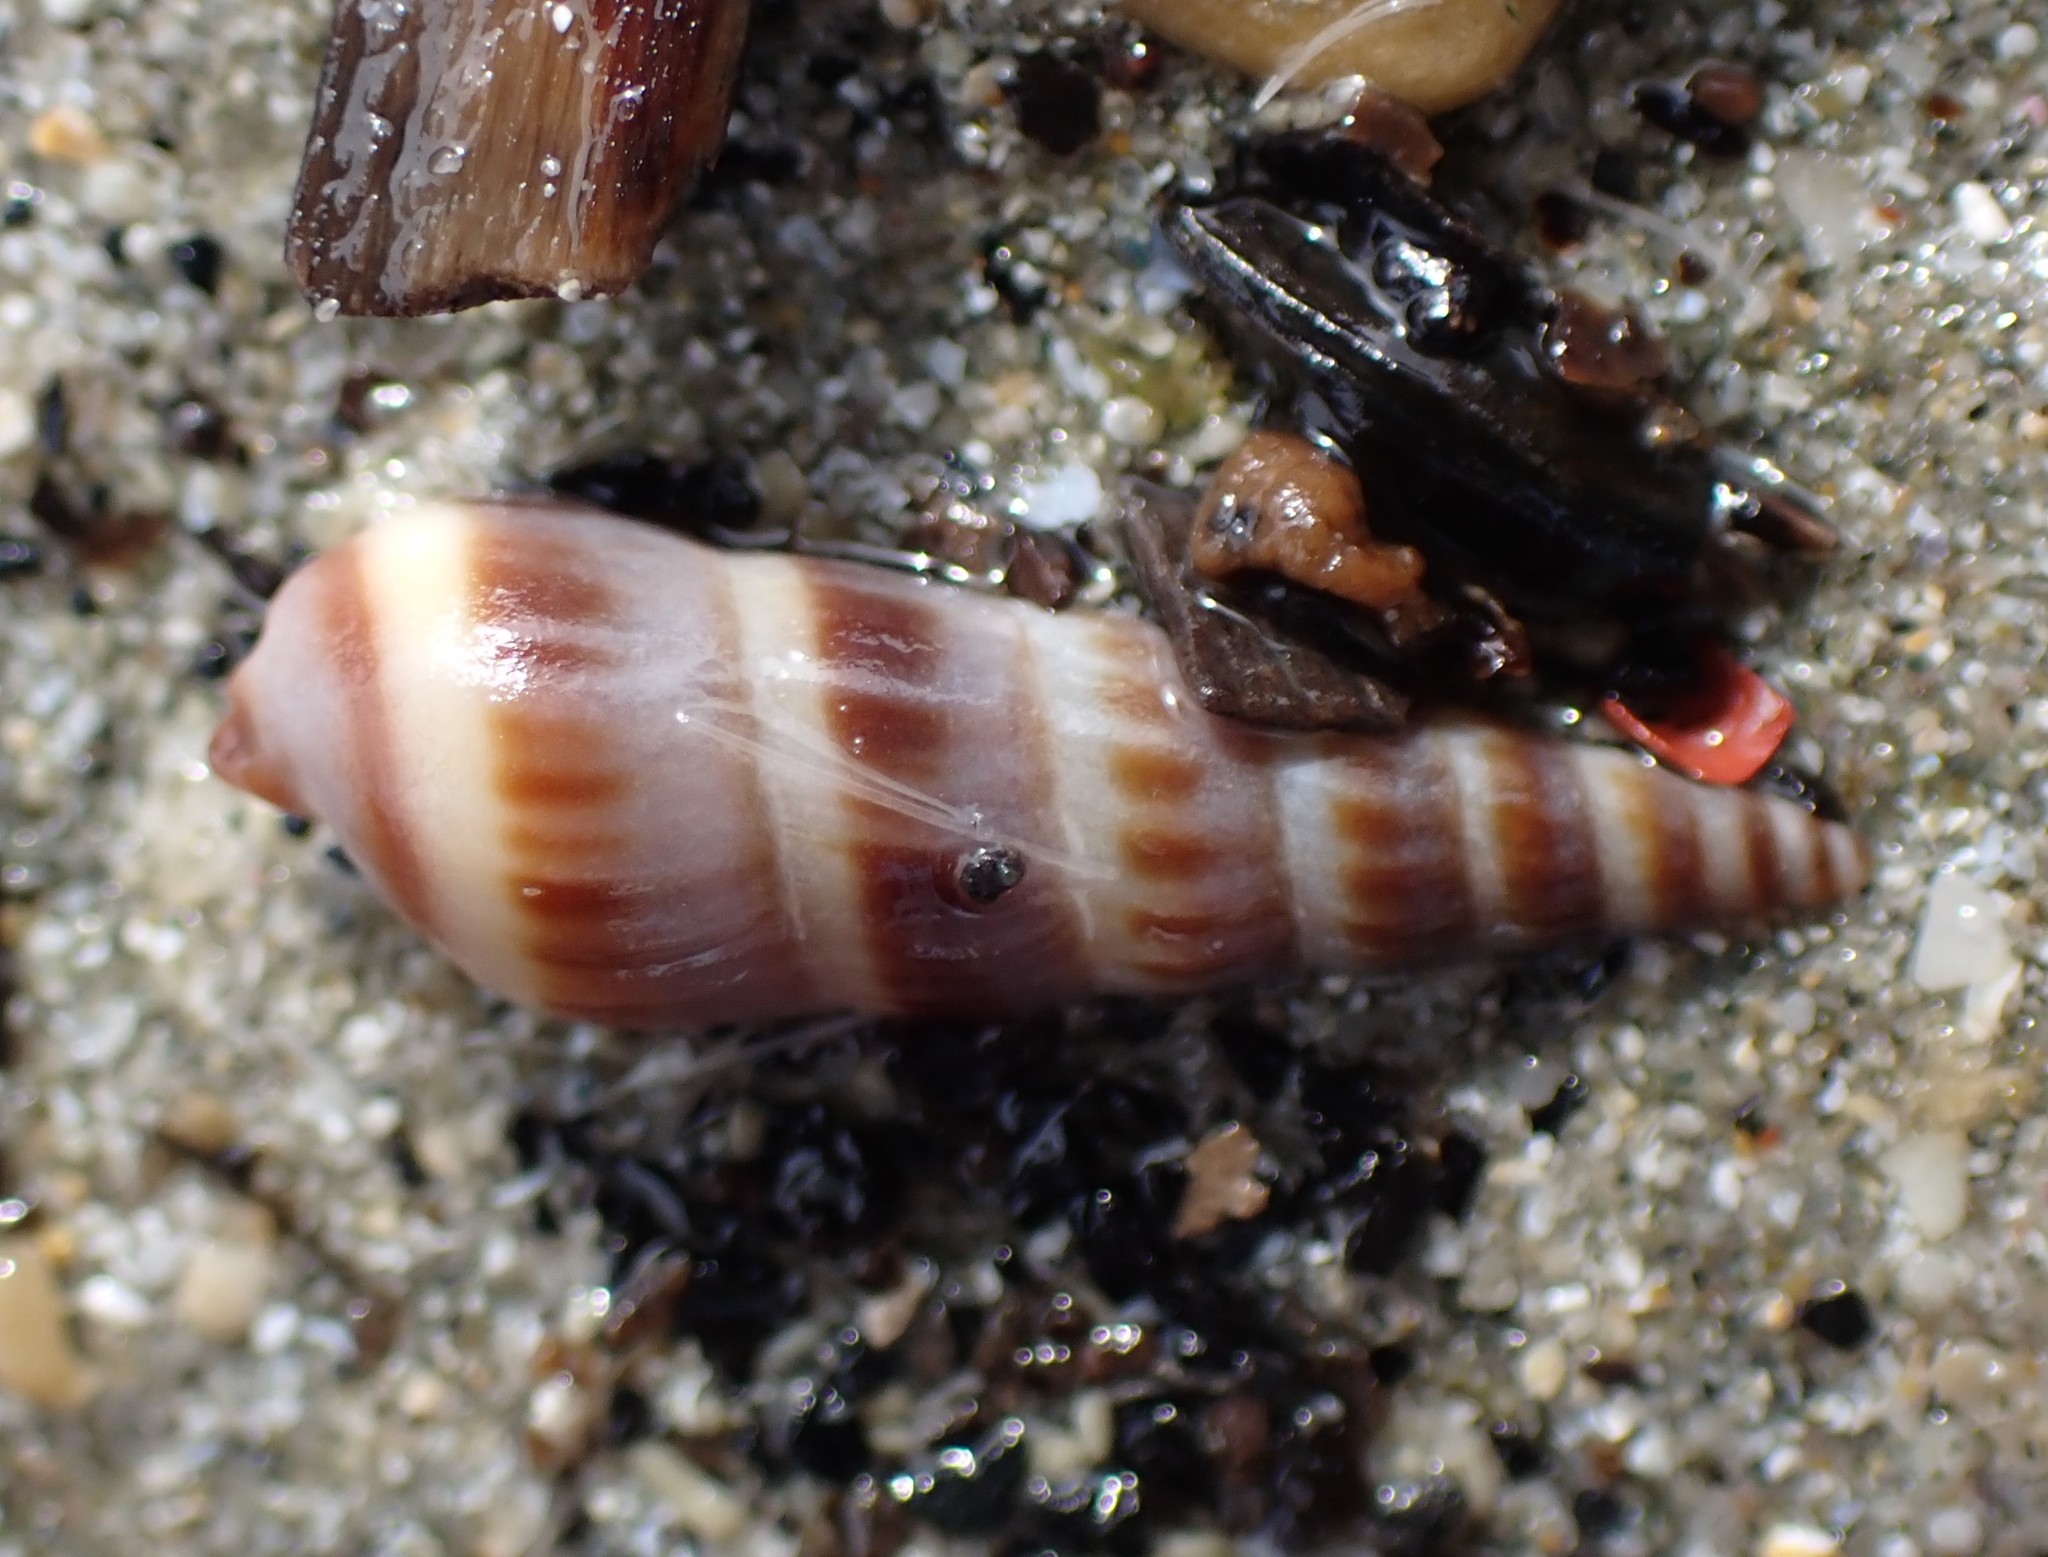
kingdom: Animalia
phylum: Mollusca
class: Gastropoda
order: Neogastropoda
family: Terebridae
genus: Duplicaria
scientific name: Duplicaria tristis
